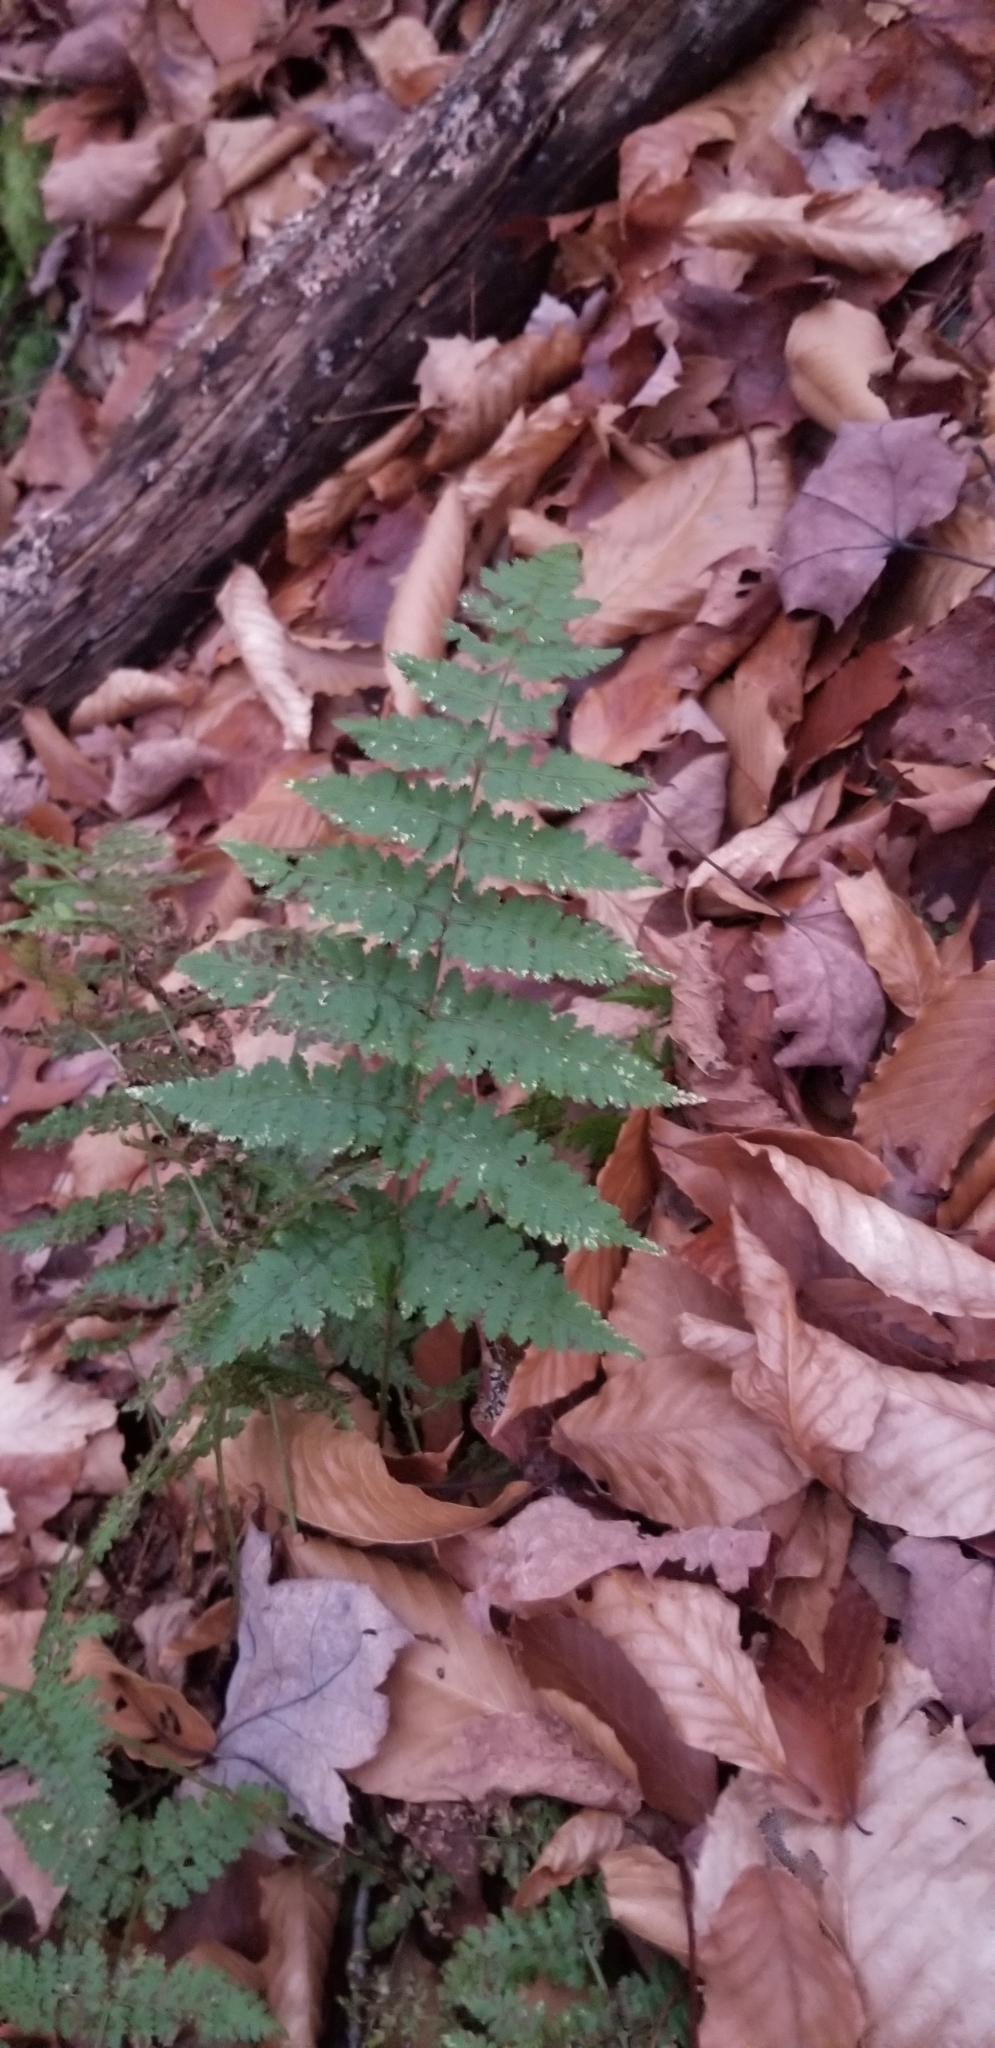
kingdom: Plantae
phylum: Tracheophyta
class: Polypodiopsida
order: Polypodiales
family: Dryopteridaceae
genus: Dryopteris
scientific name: Dryopteris intermedia
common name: Evergreen wood fern
